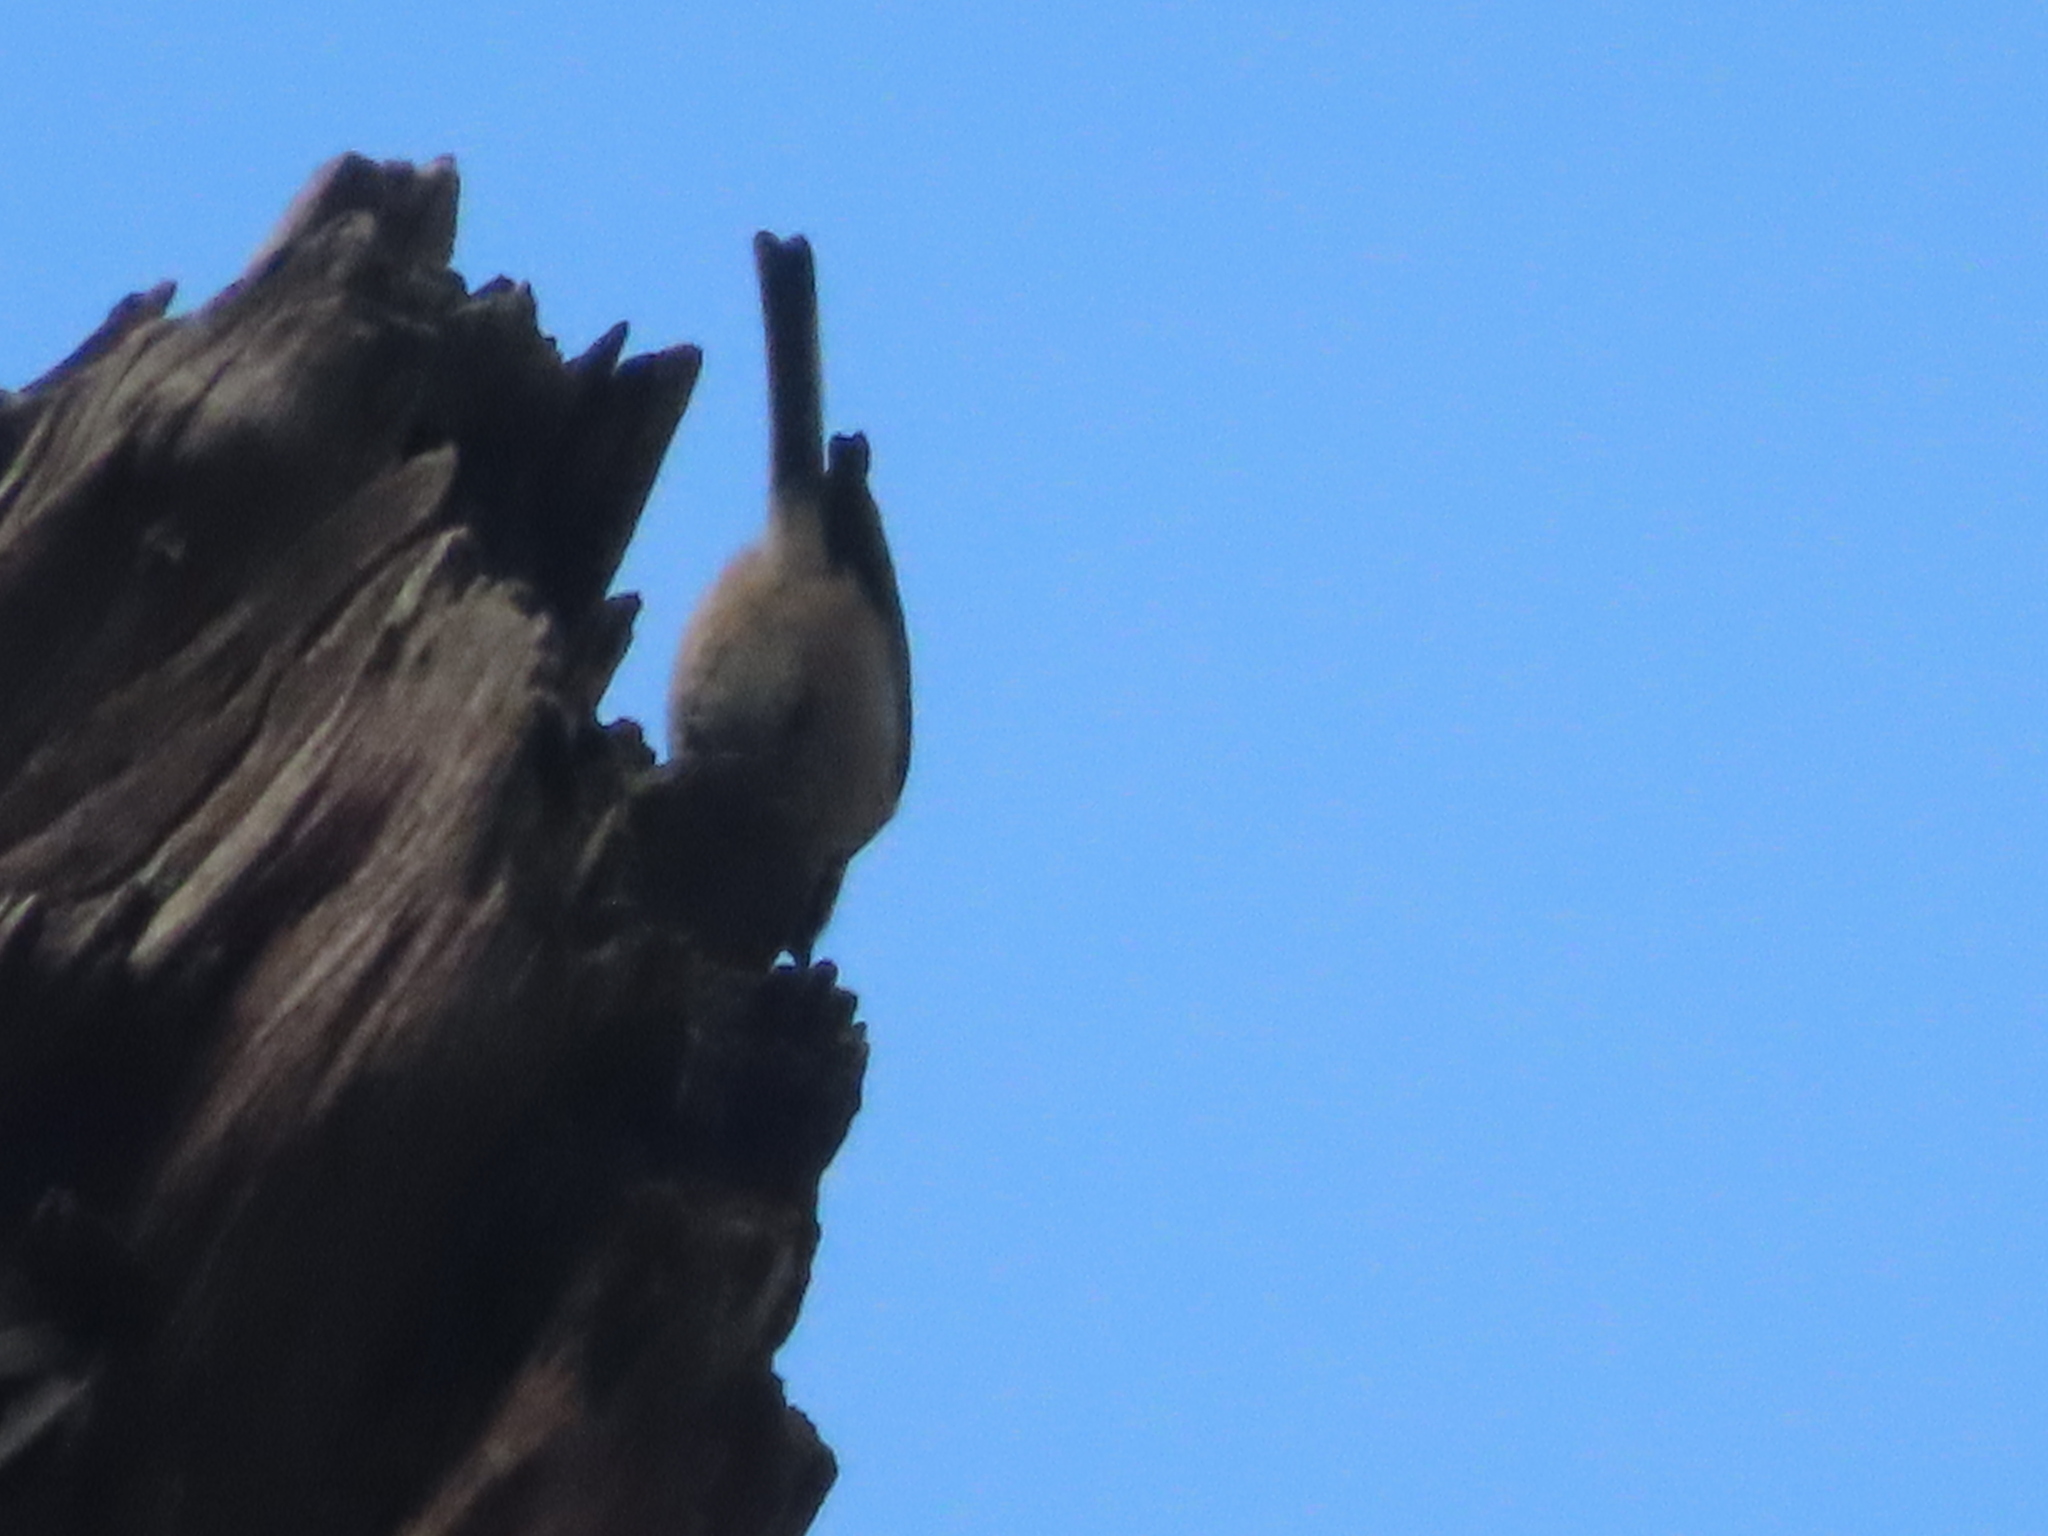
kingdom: Animalia
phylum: Chordata
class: Aves
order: Passeriformes
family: Paridae
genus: Poecile
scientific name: Poecile carolinensis
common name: Carolina chickadee
